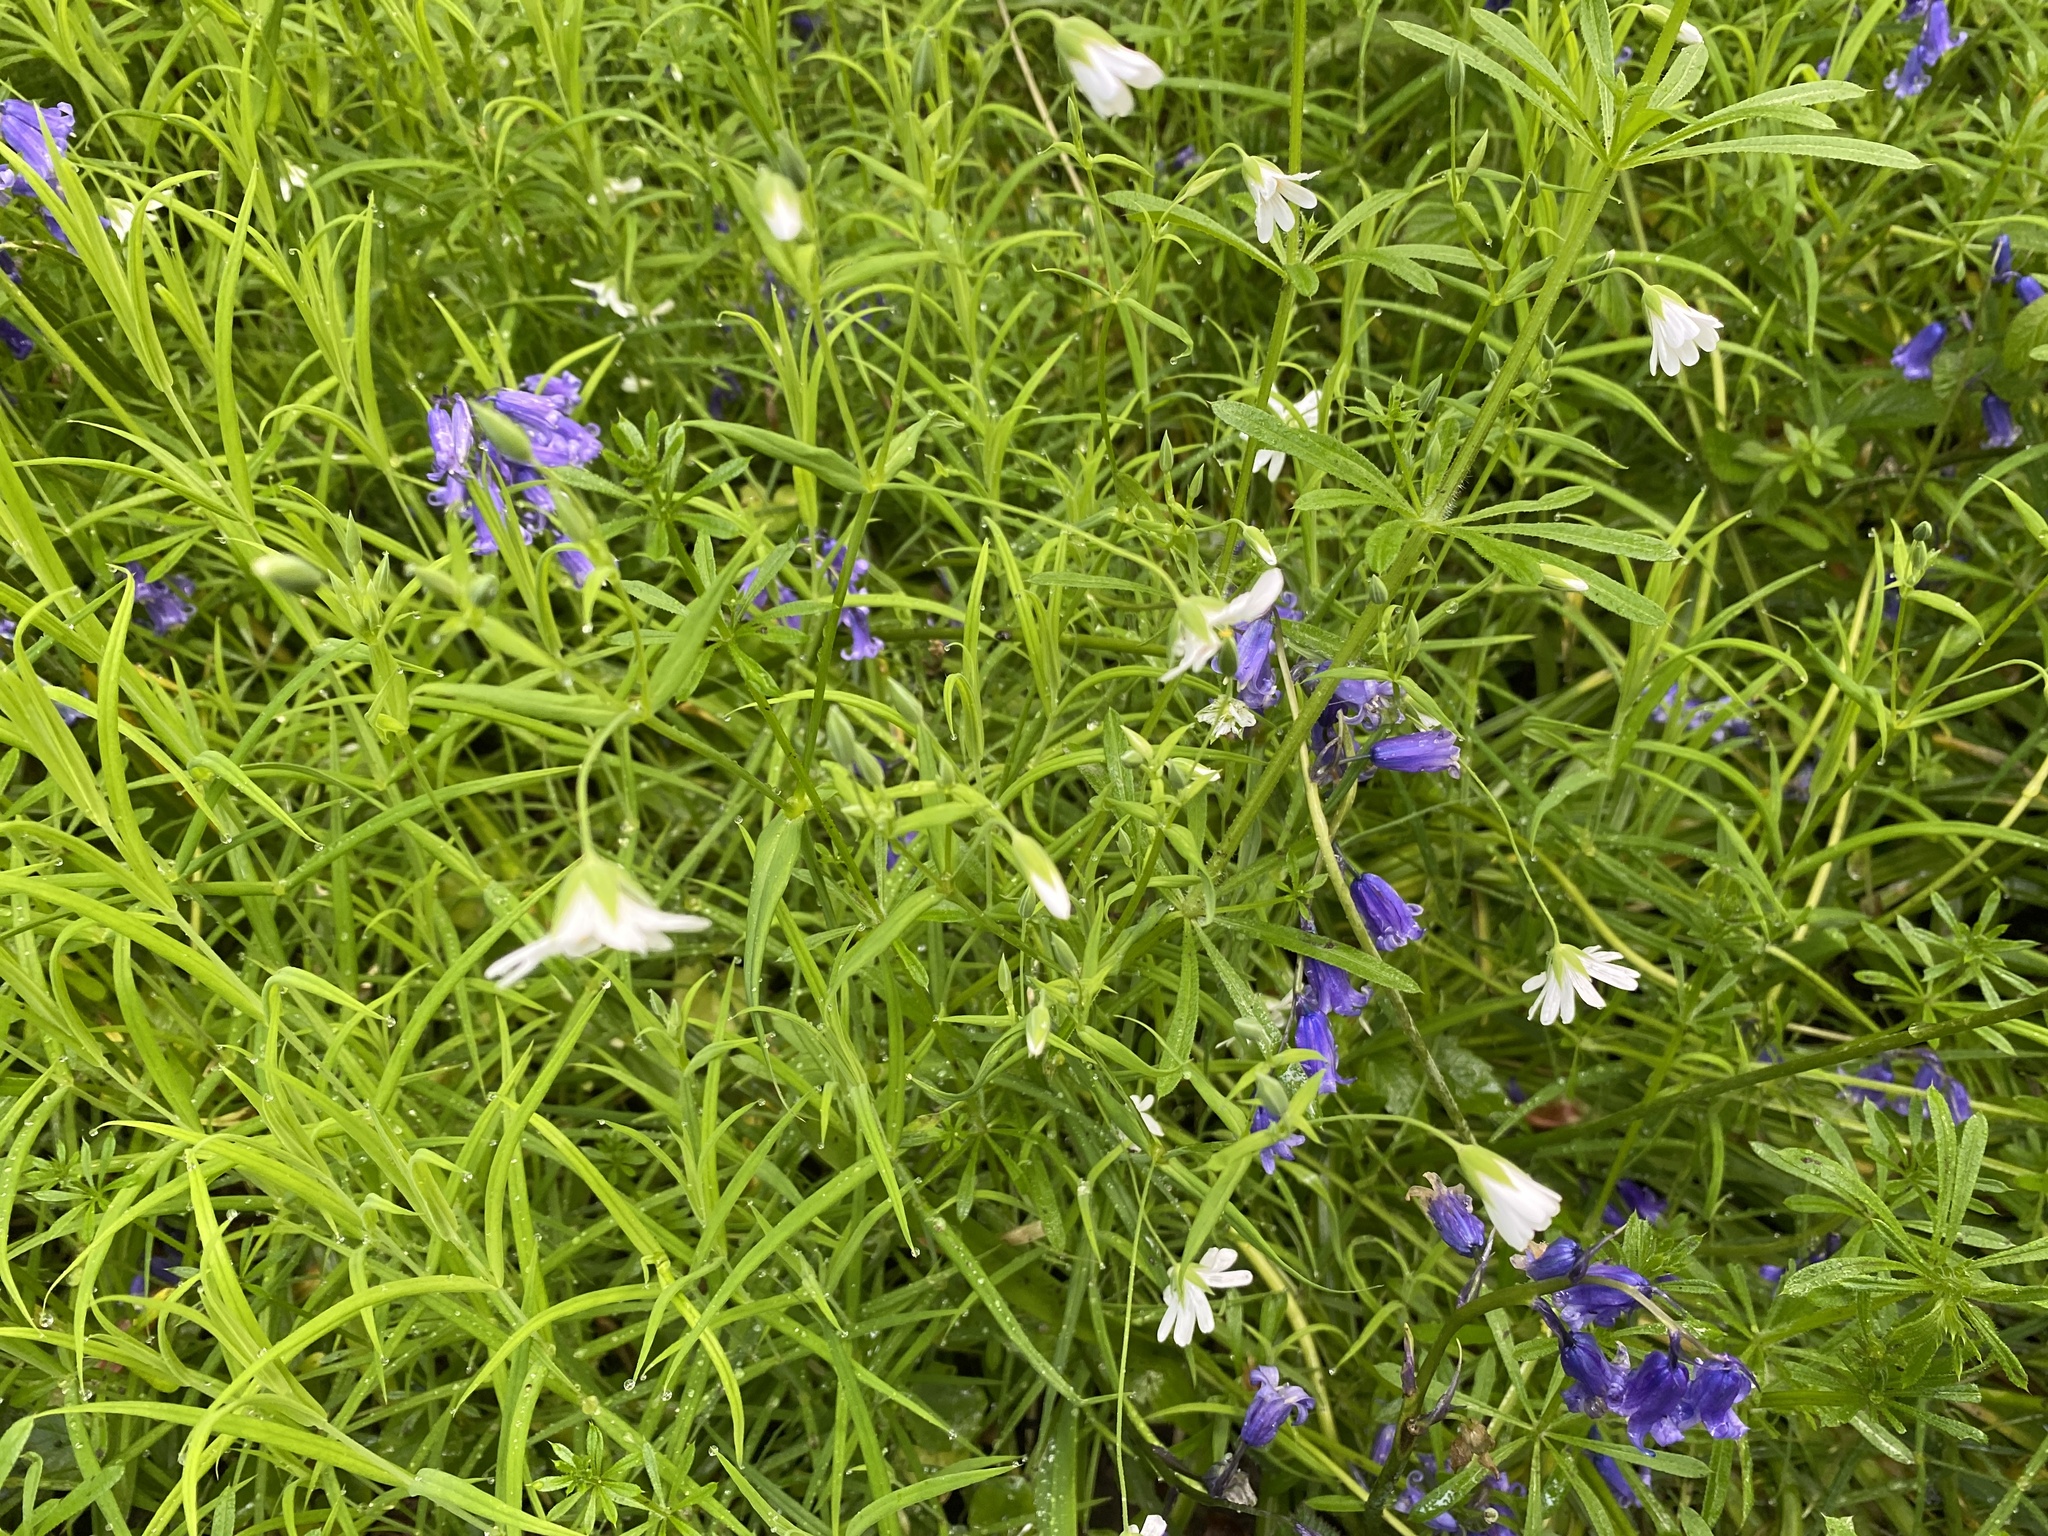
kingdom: Plantae
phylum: Tracheophyta
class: Magnoliopsida
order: Caryophyllales
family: Caryophyllaceae
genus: Rabelera
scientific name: Rabelera holostea
